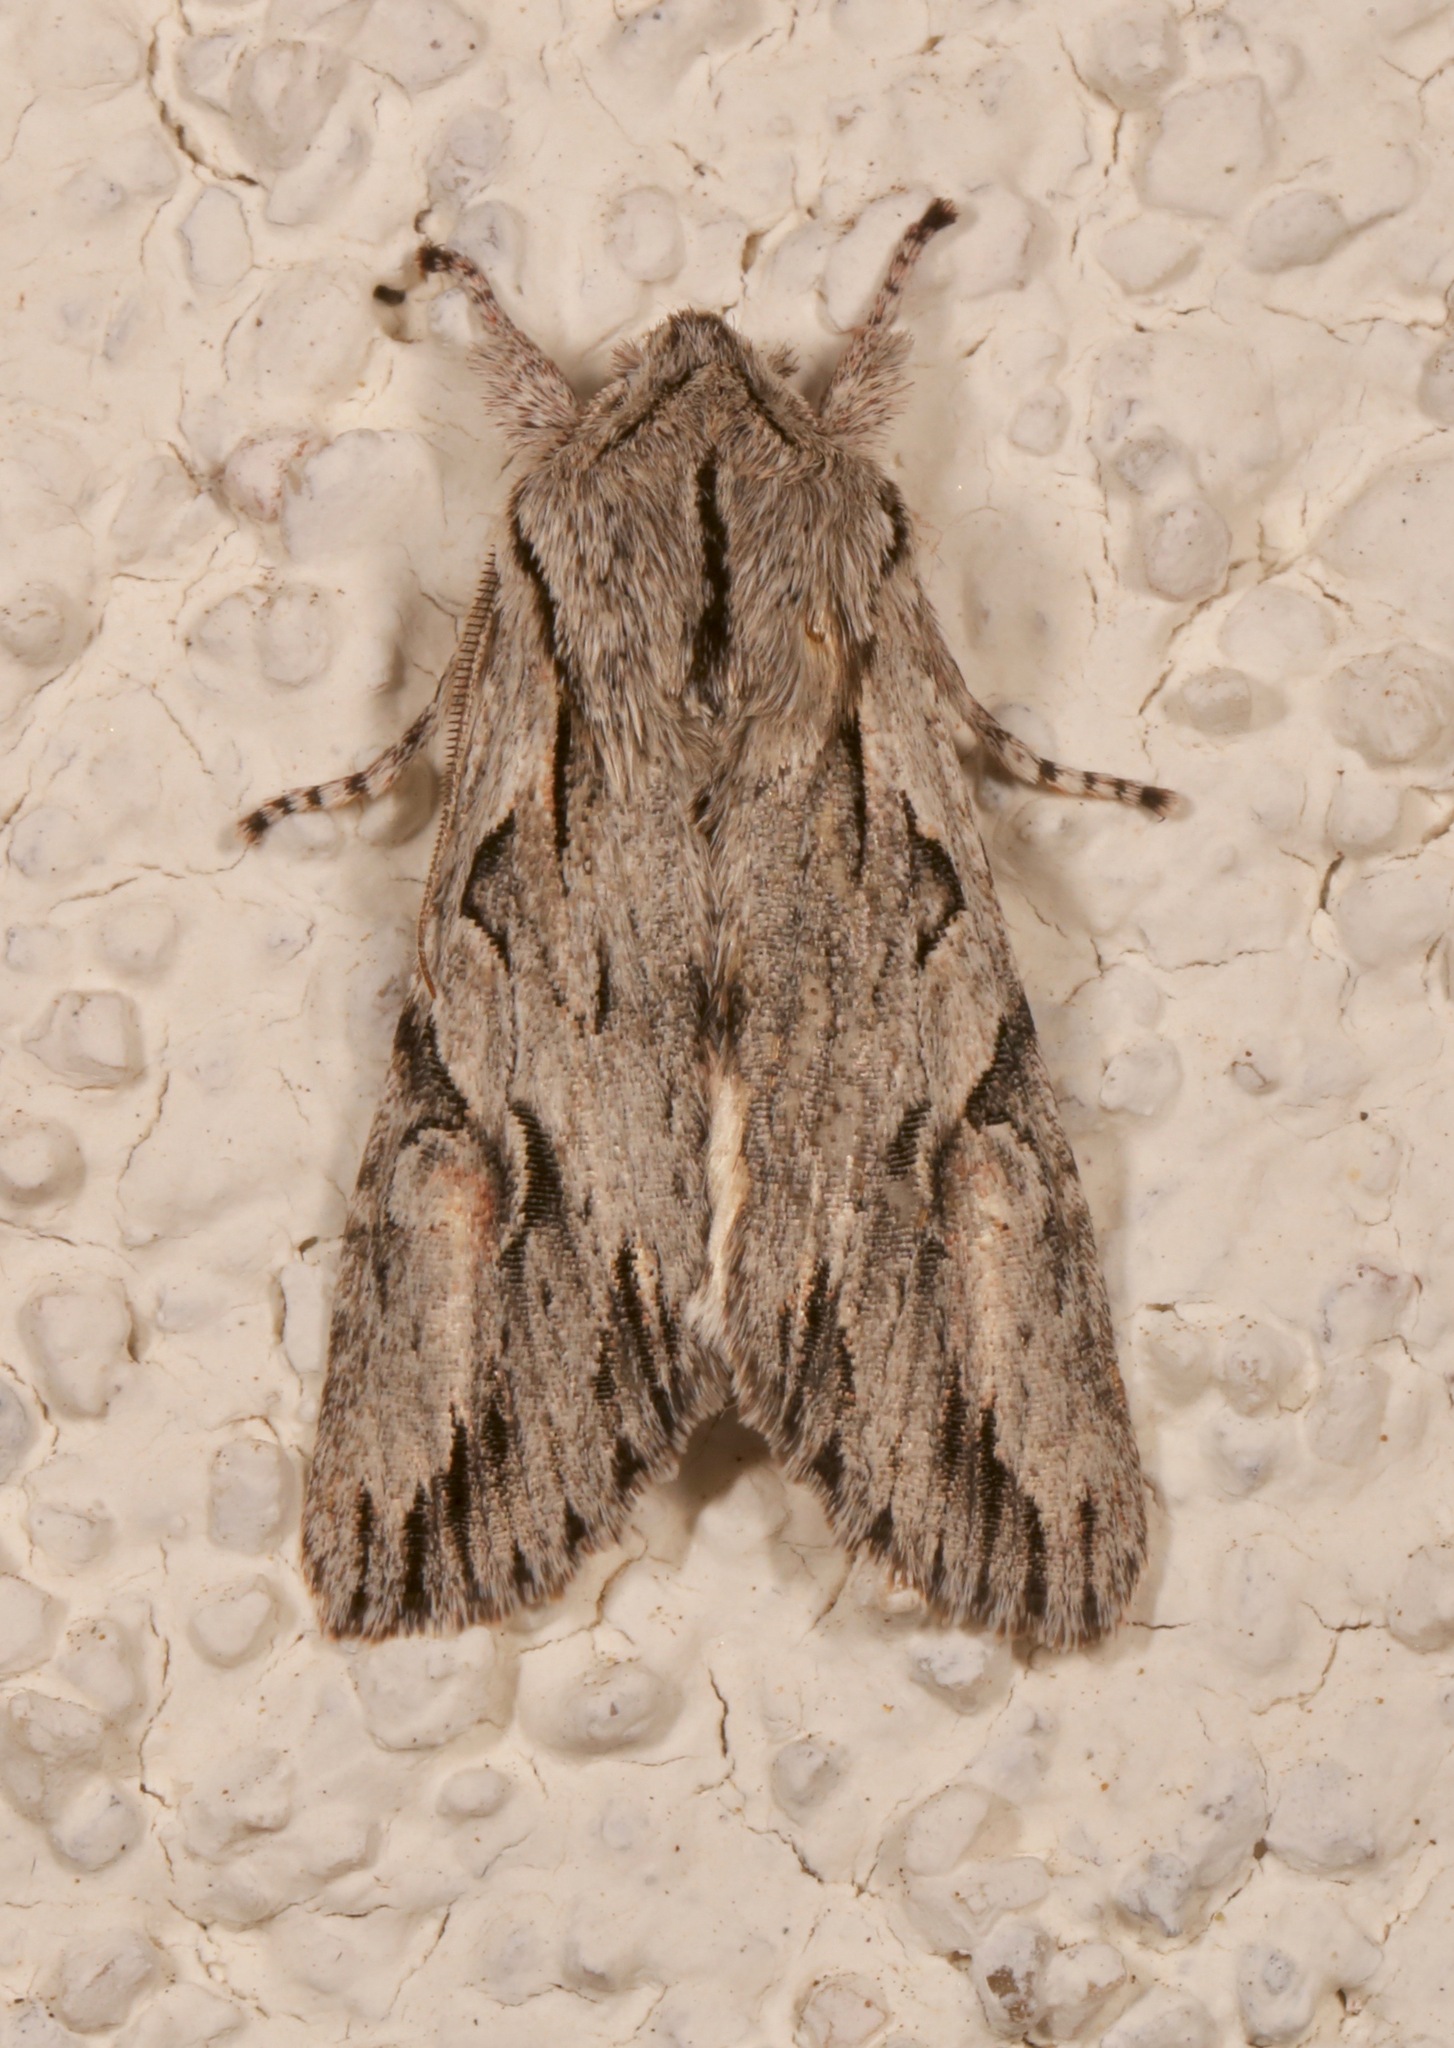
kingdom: Animalia
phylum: Arthropoda
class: Insecta
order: Lepidoptera
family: Noctuidae
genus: Egira
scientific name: Egira crucialis
